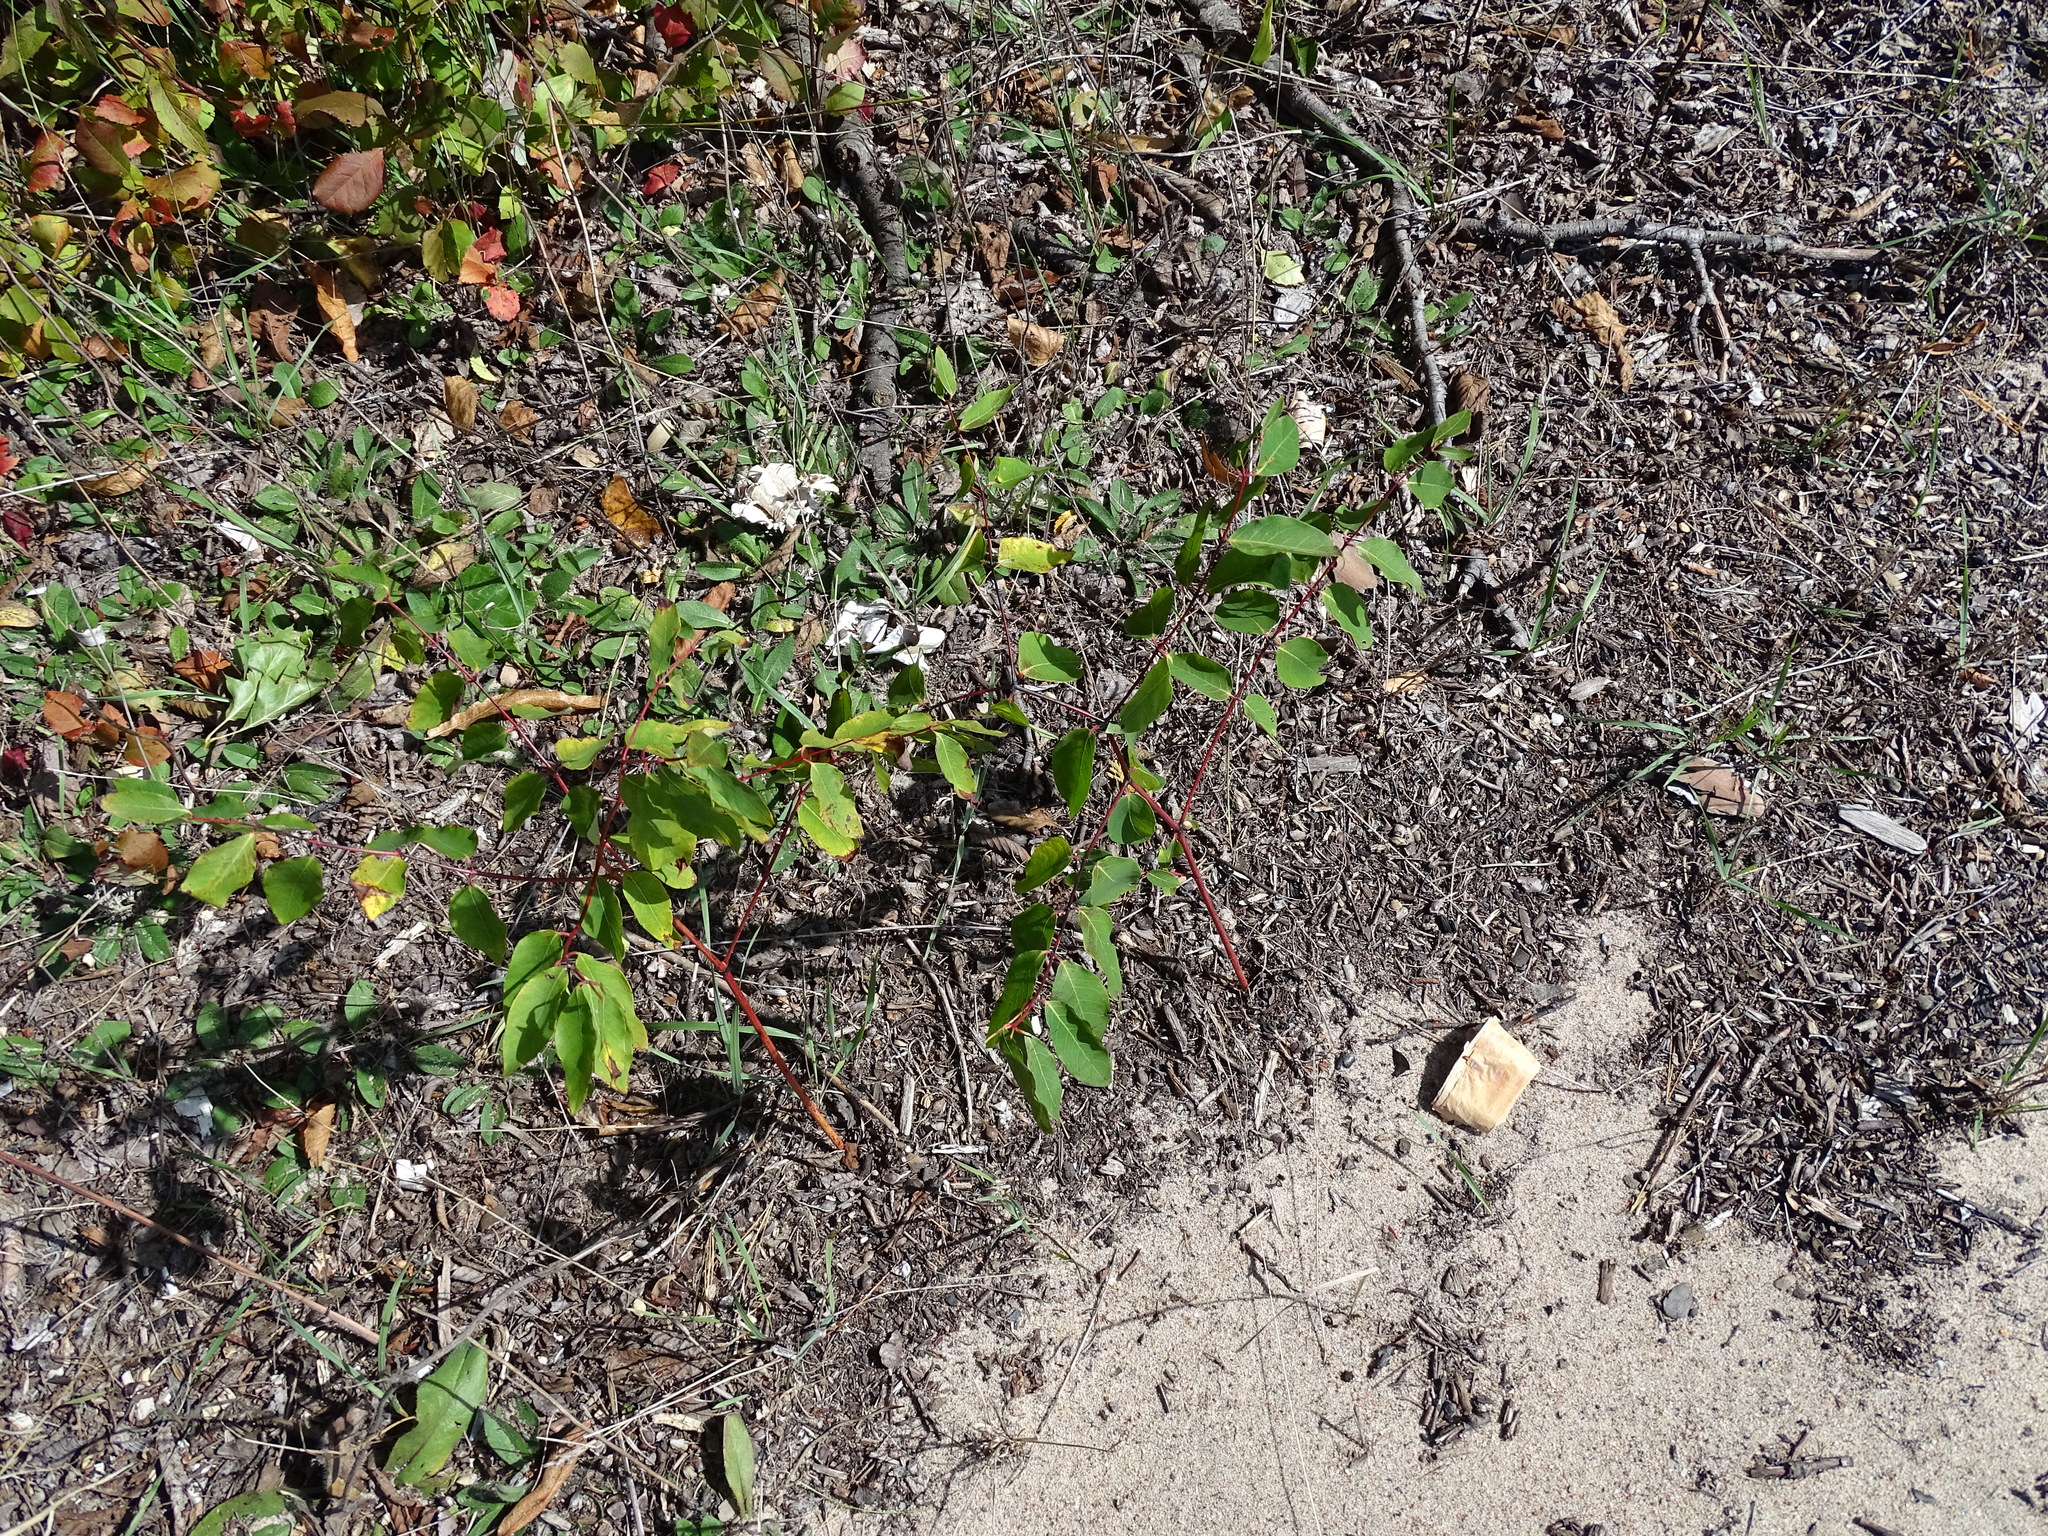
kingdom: Plantae
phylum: Tracheophyta
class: Magnoliopsida
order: Gentianales
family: Apocynaceae
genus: Apocynum
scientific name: Apocynum androsaemifolium
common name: Spreading dogbane
